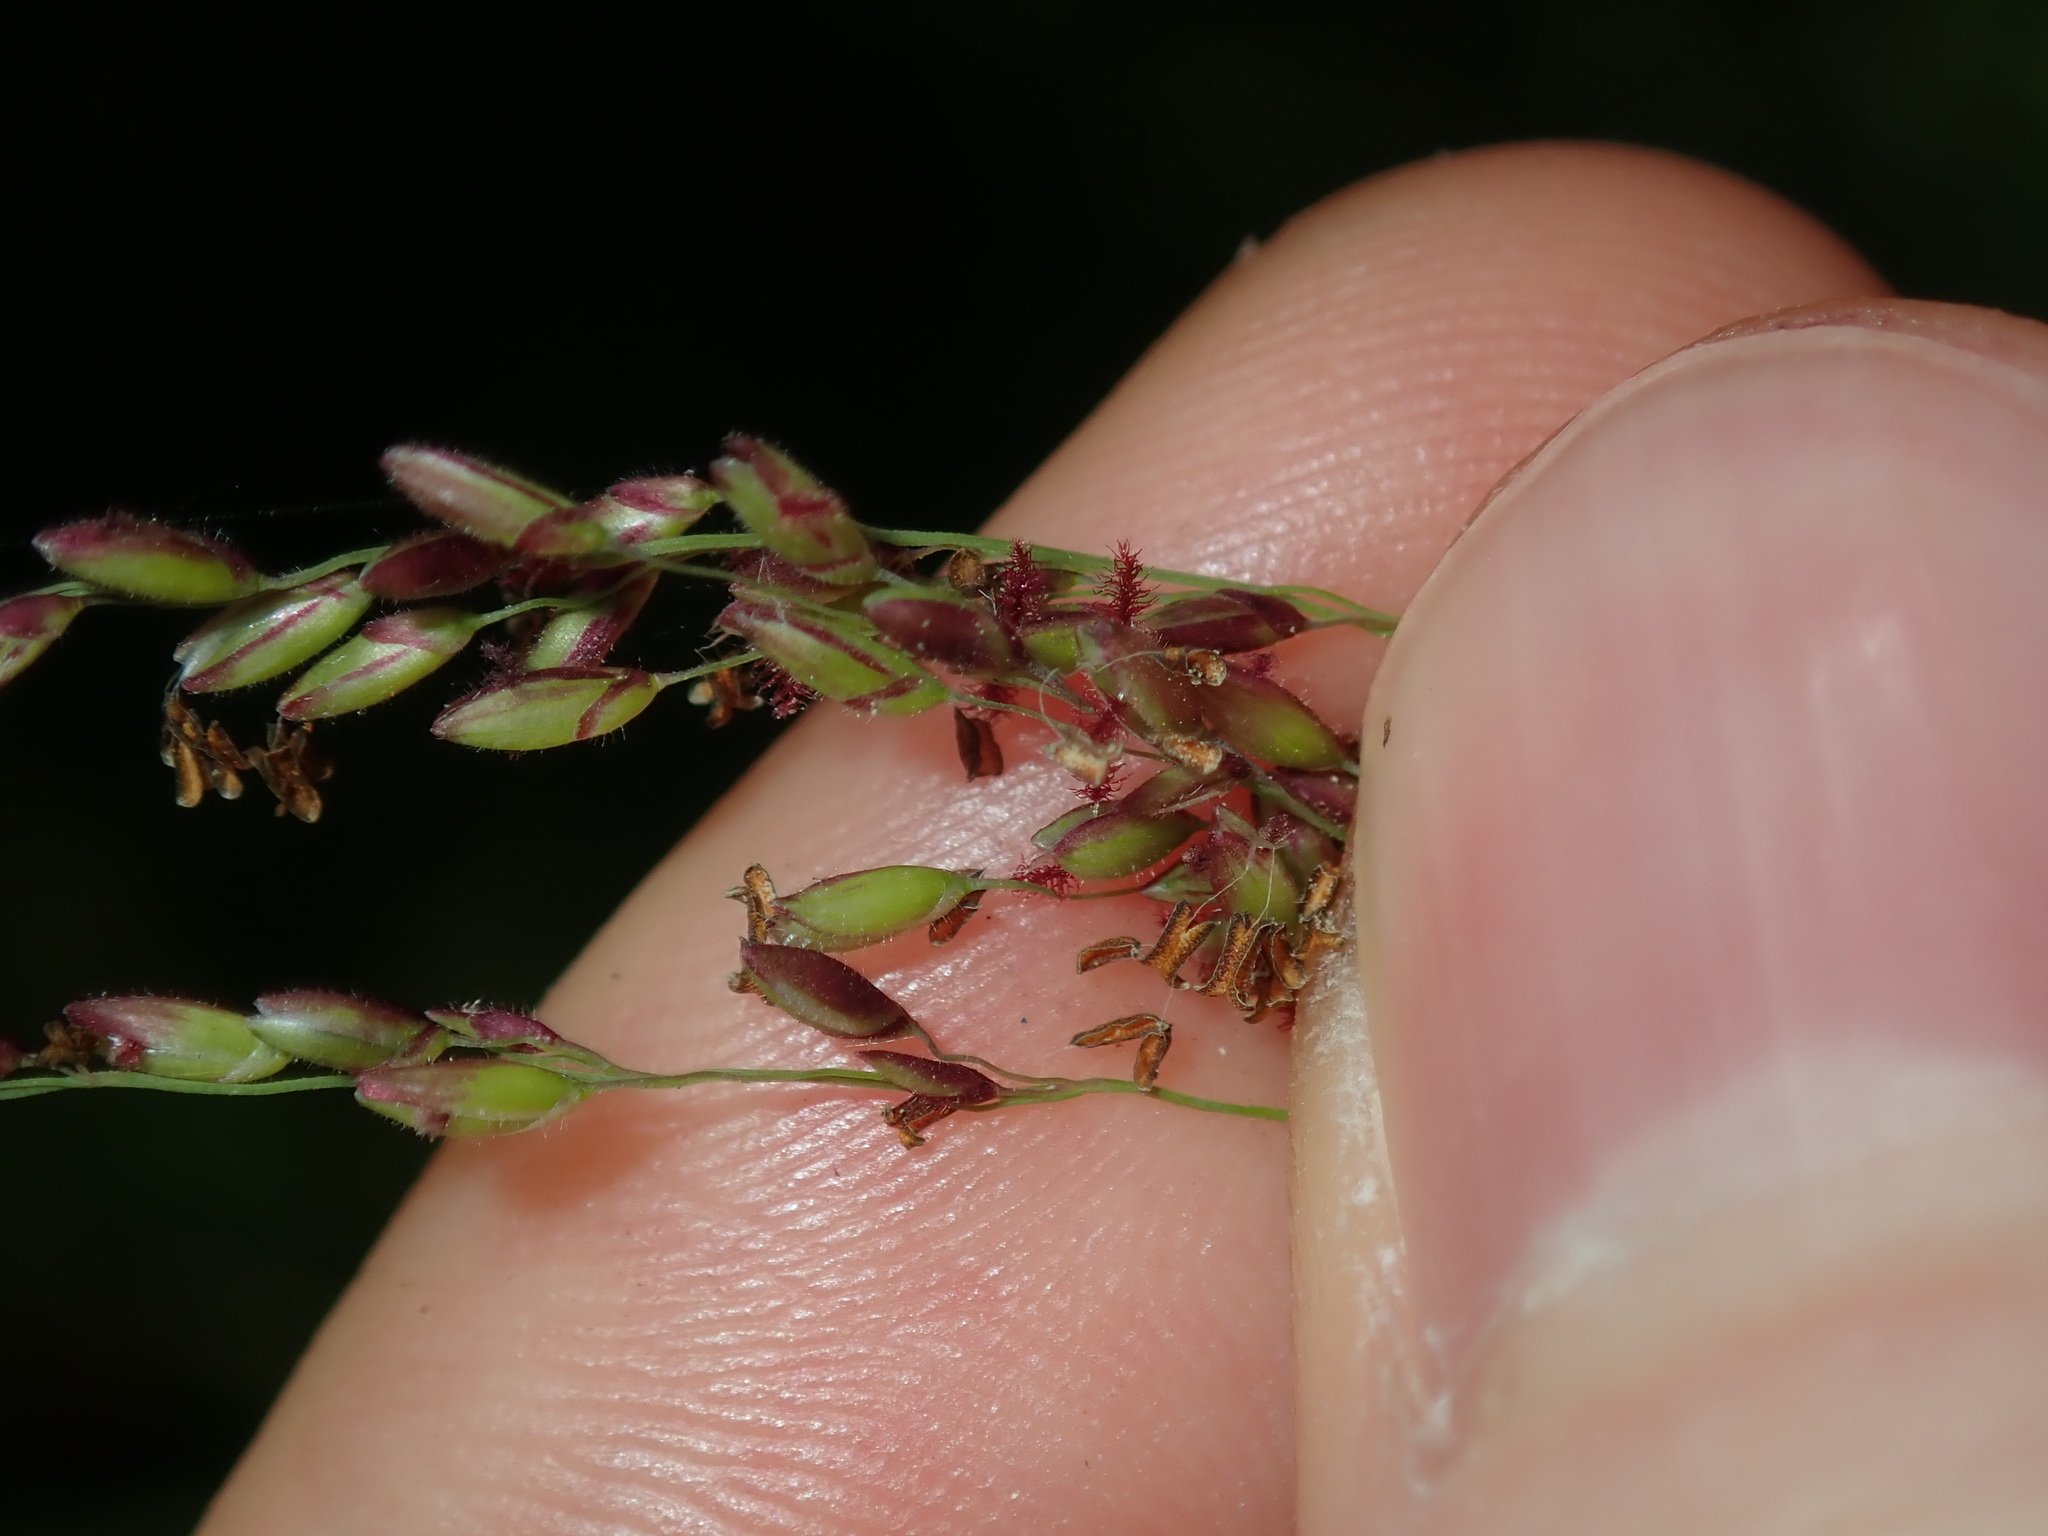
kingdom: Plantae
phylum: Tracheophyta
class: Liliopsida
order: Poales
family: Poaceae
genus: Megathyrsus
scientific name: Megathyrsus maximus
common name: Guineagrass
